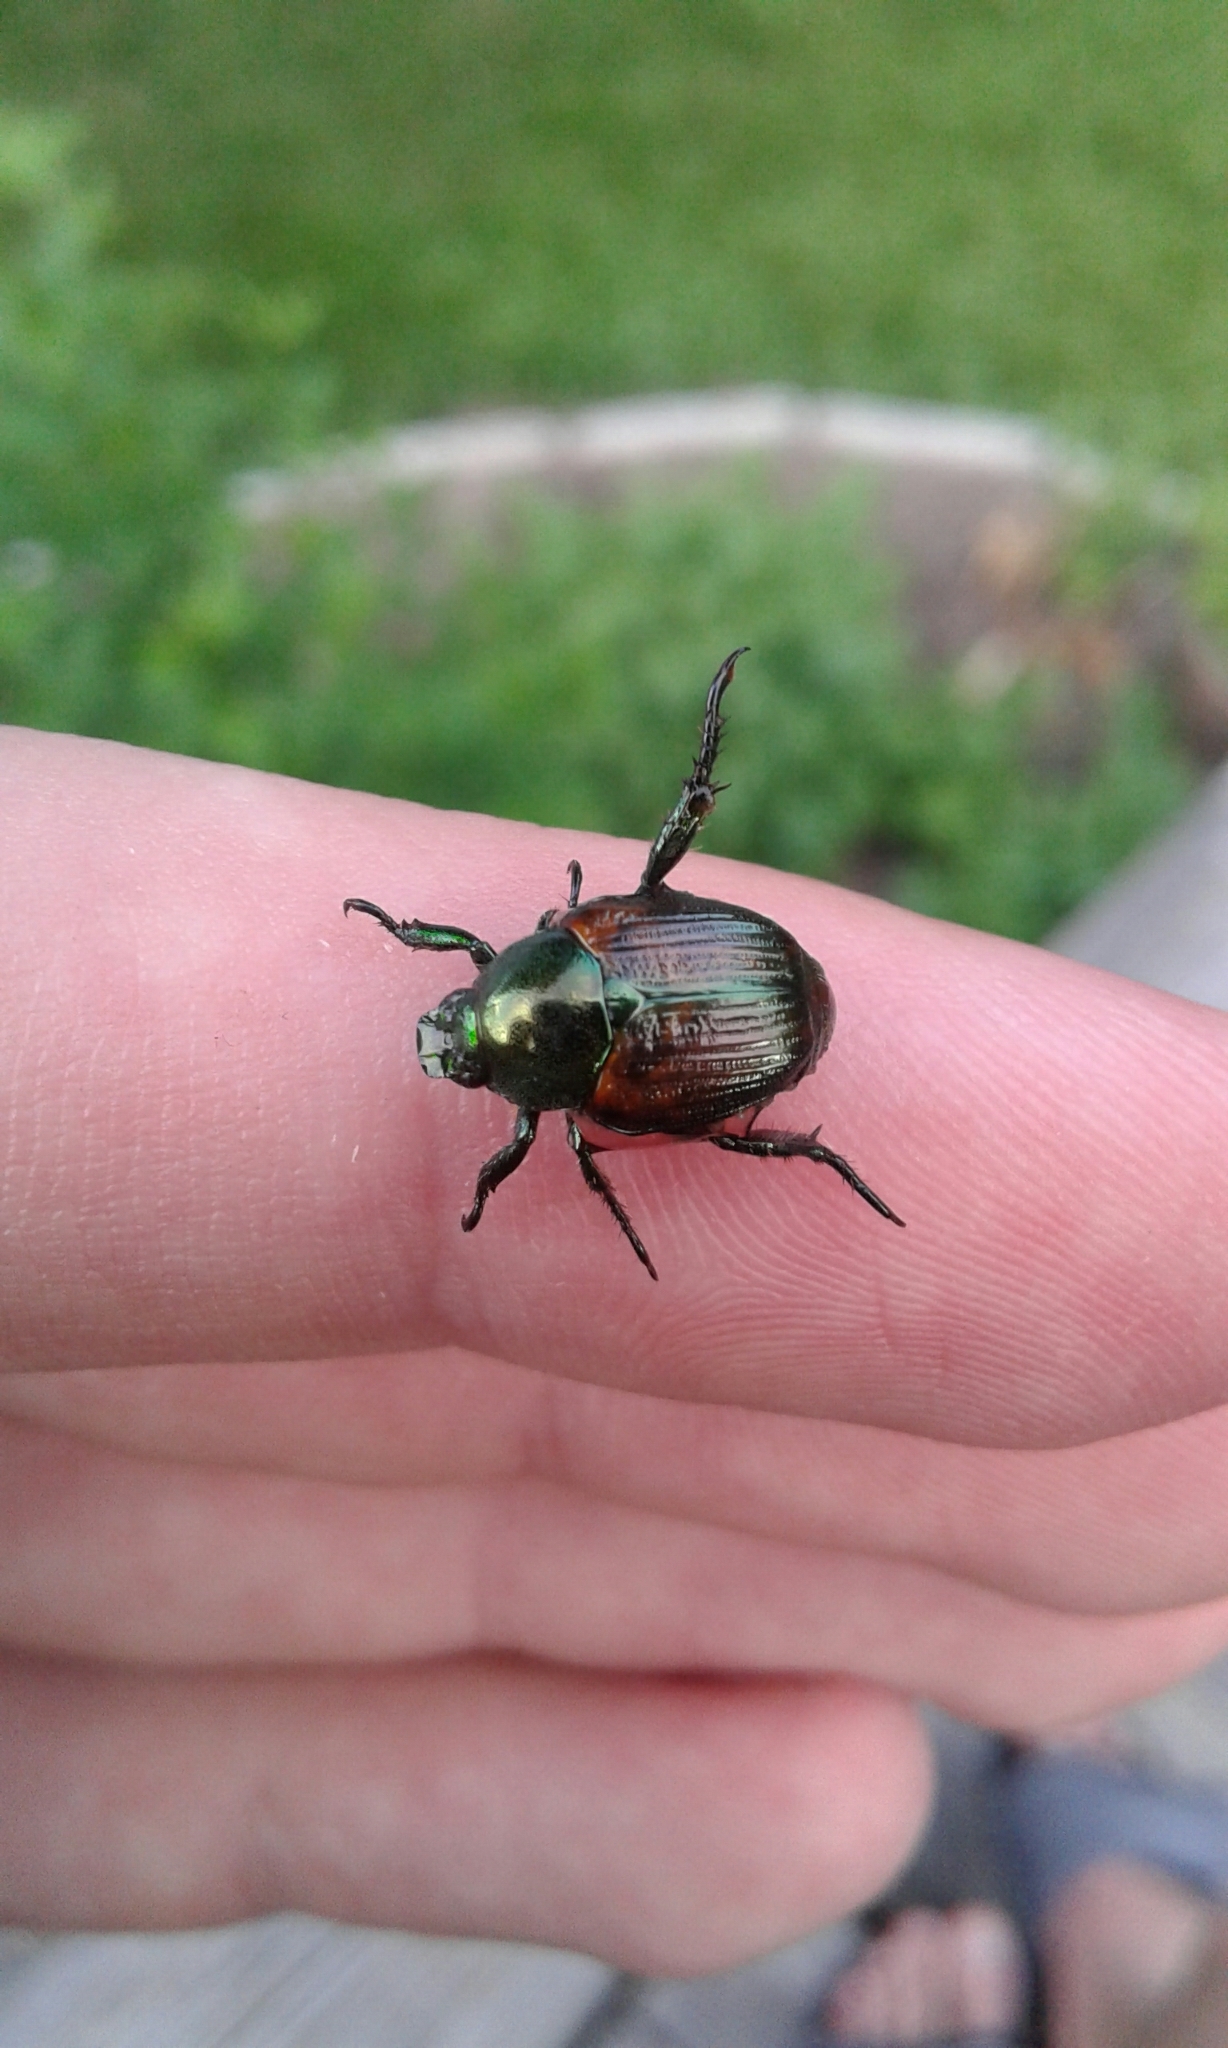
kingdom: Animalia
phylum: Arthropoda
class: Insecta
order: Coleoptera
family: Scarabaeidae
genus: Popillia
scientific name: Popillia japonica
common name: Japanese beetle
